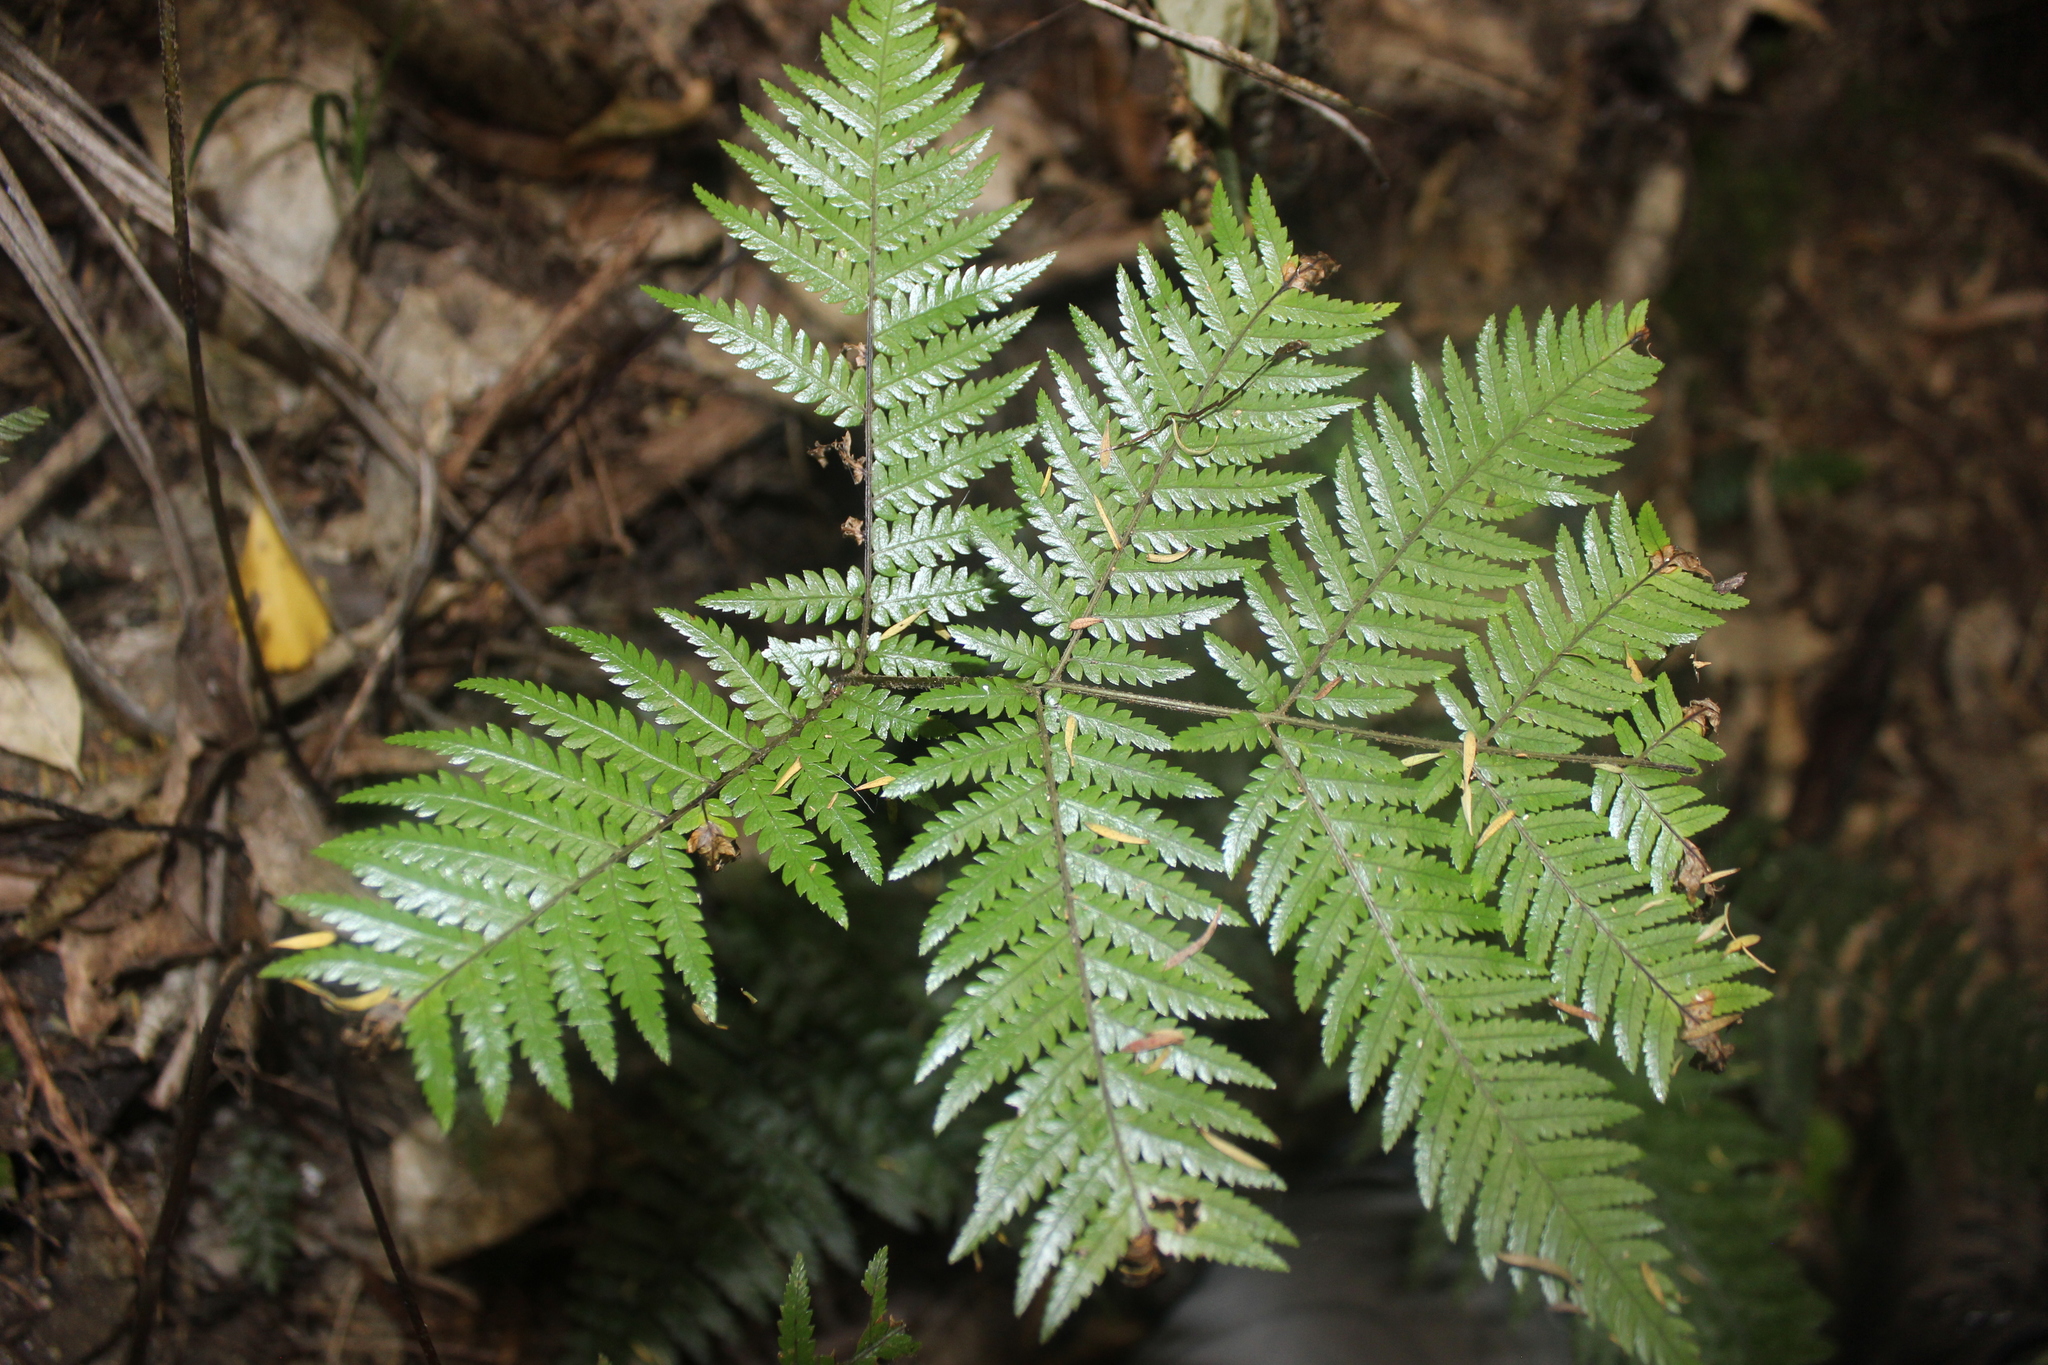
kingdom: Plantae
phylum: Tracheophyta
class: Polypodiopsida
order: Cyatheales
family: Cyatheaceae
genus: Alsophila
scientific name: Alsophila dealbata
